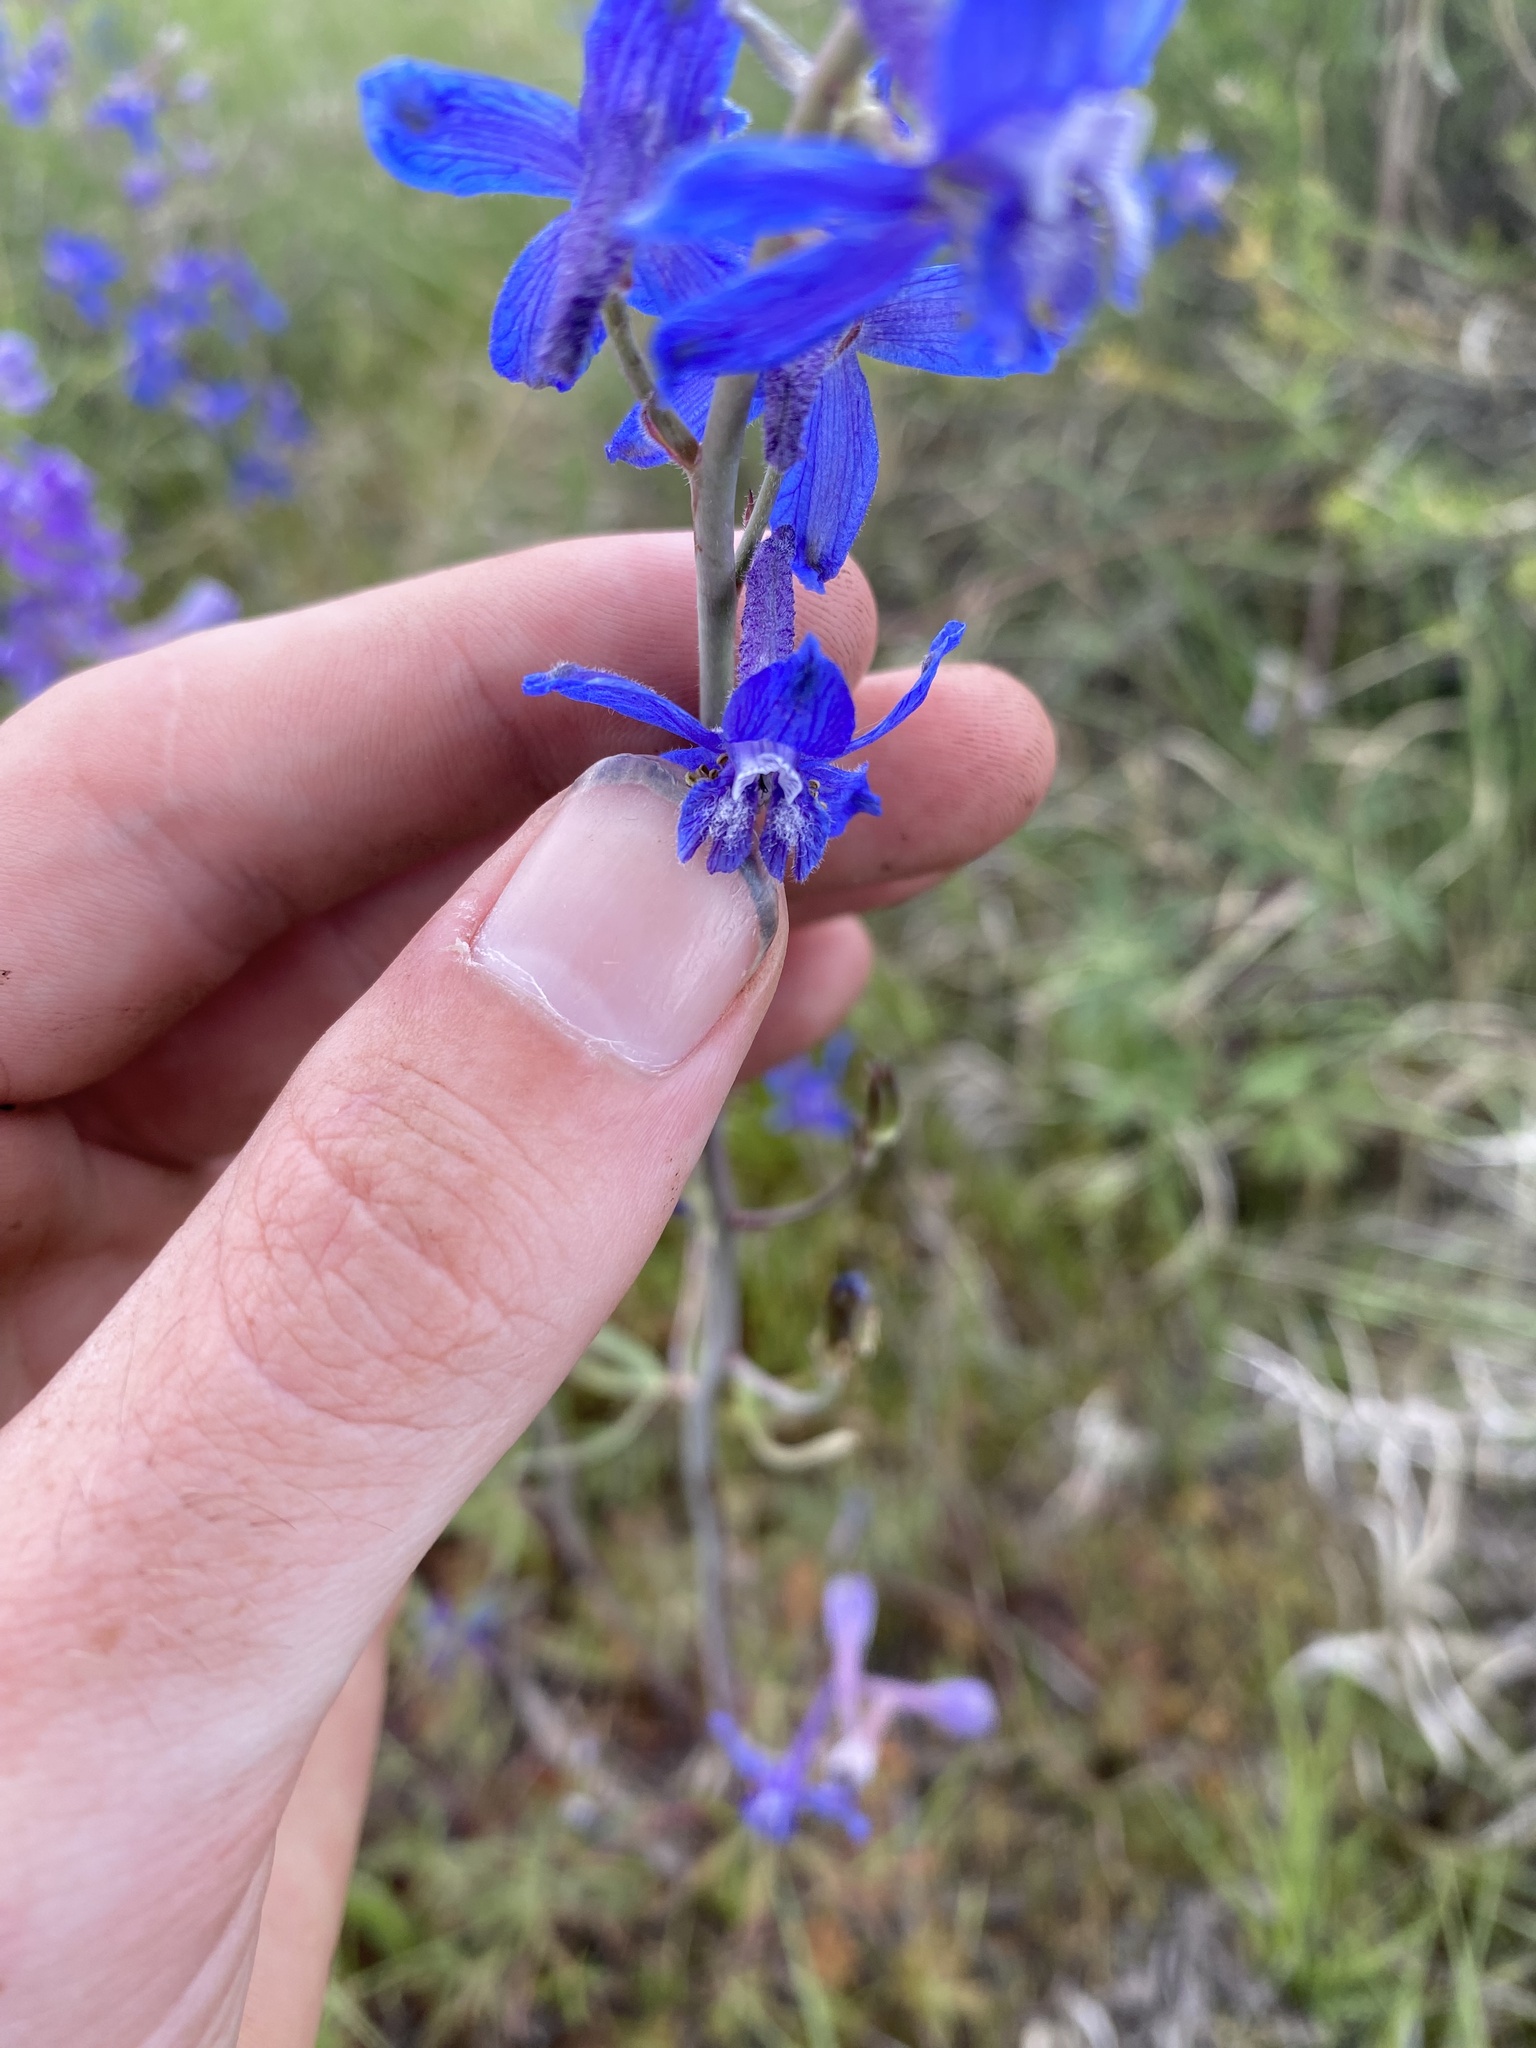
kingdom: Plantae
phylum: Tracheophyta
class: Magnoliopsida
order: Ranunculales
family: Ranunculaceae
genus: Delphinium
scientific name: Delphinium andersonii
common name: Anderson's larkspur
